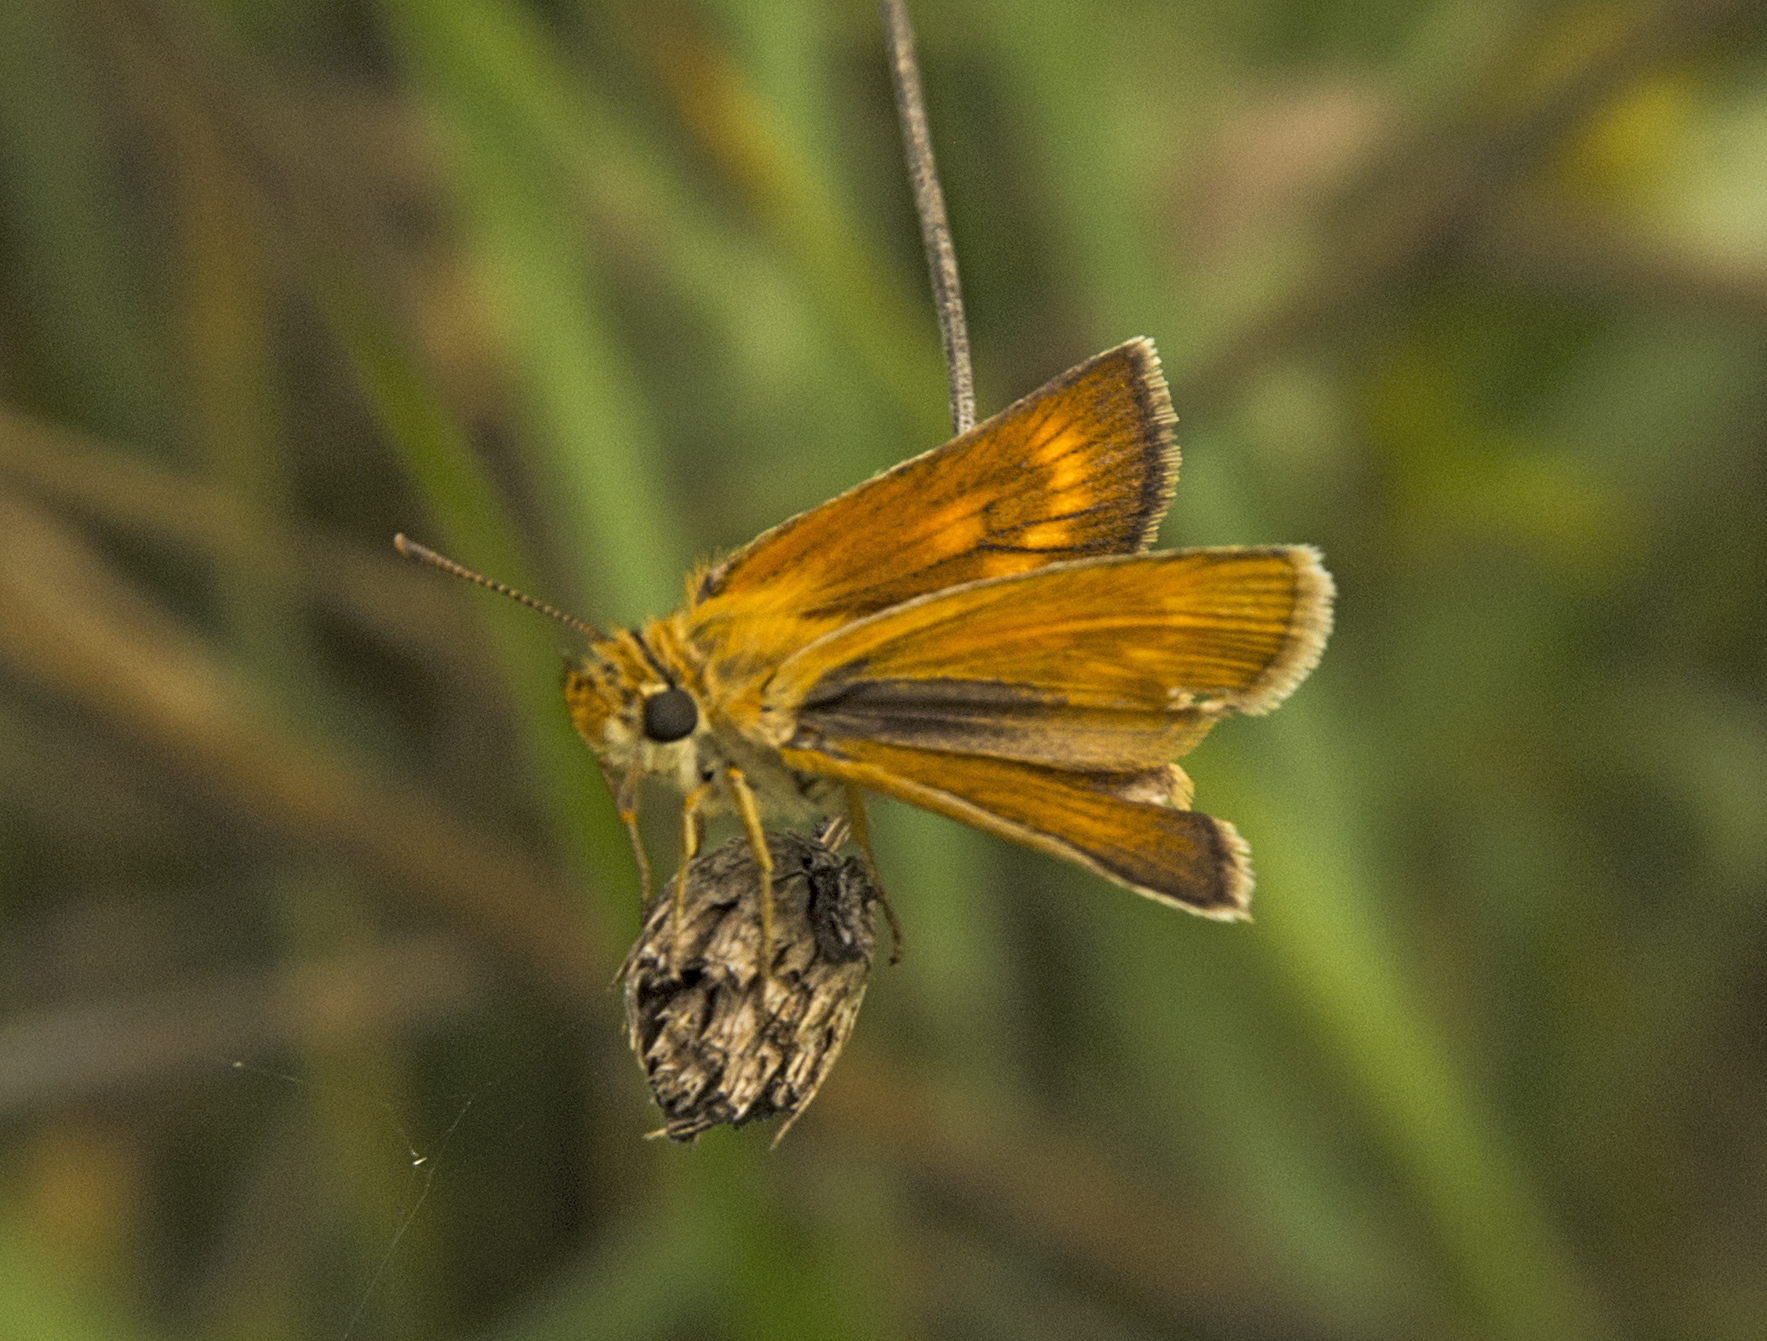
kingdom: Animalia
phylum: Arthropoda
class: Insecta
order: Lepidoptera
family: Hesperiidae
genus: Thymelicus
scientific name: Thymelicus acteon
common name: Lulworth skipper
